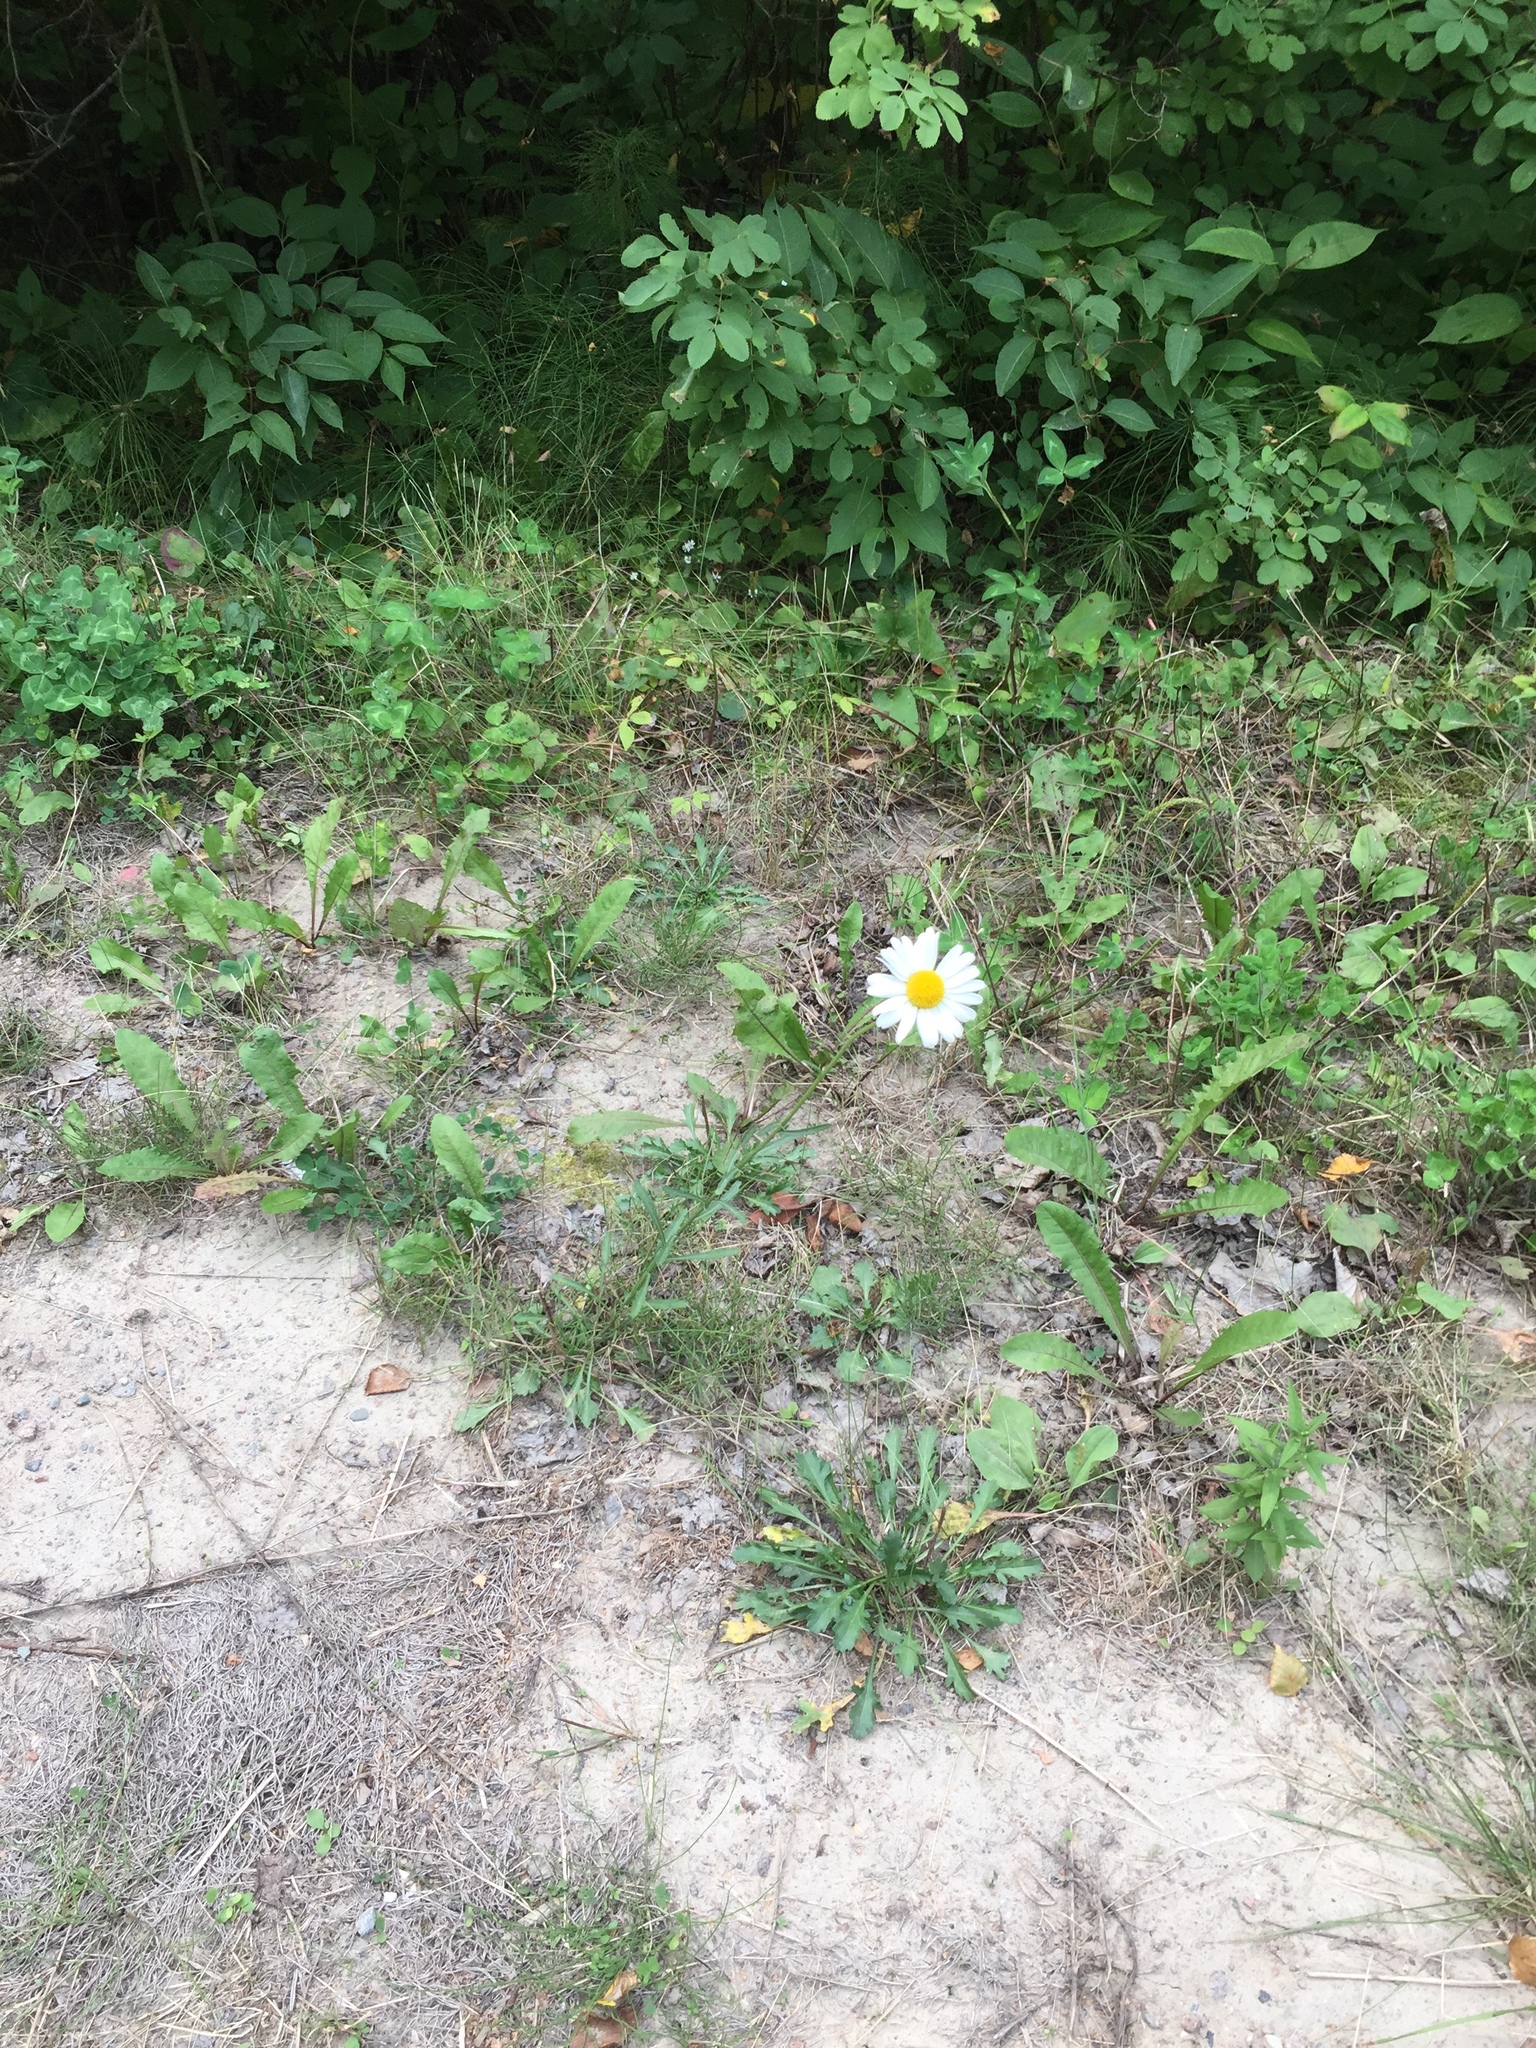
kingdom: Plantae
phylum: Tracheophyta
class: Magnoliopsida
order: Asterales
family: Asteraceae
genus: Leucanthemum
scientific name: Leucanthemum vulgare
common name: Oxeye daisy
